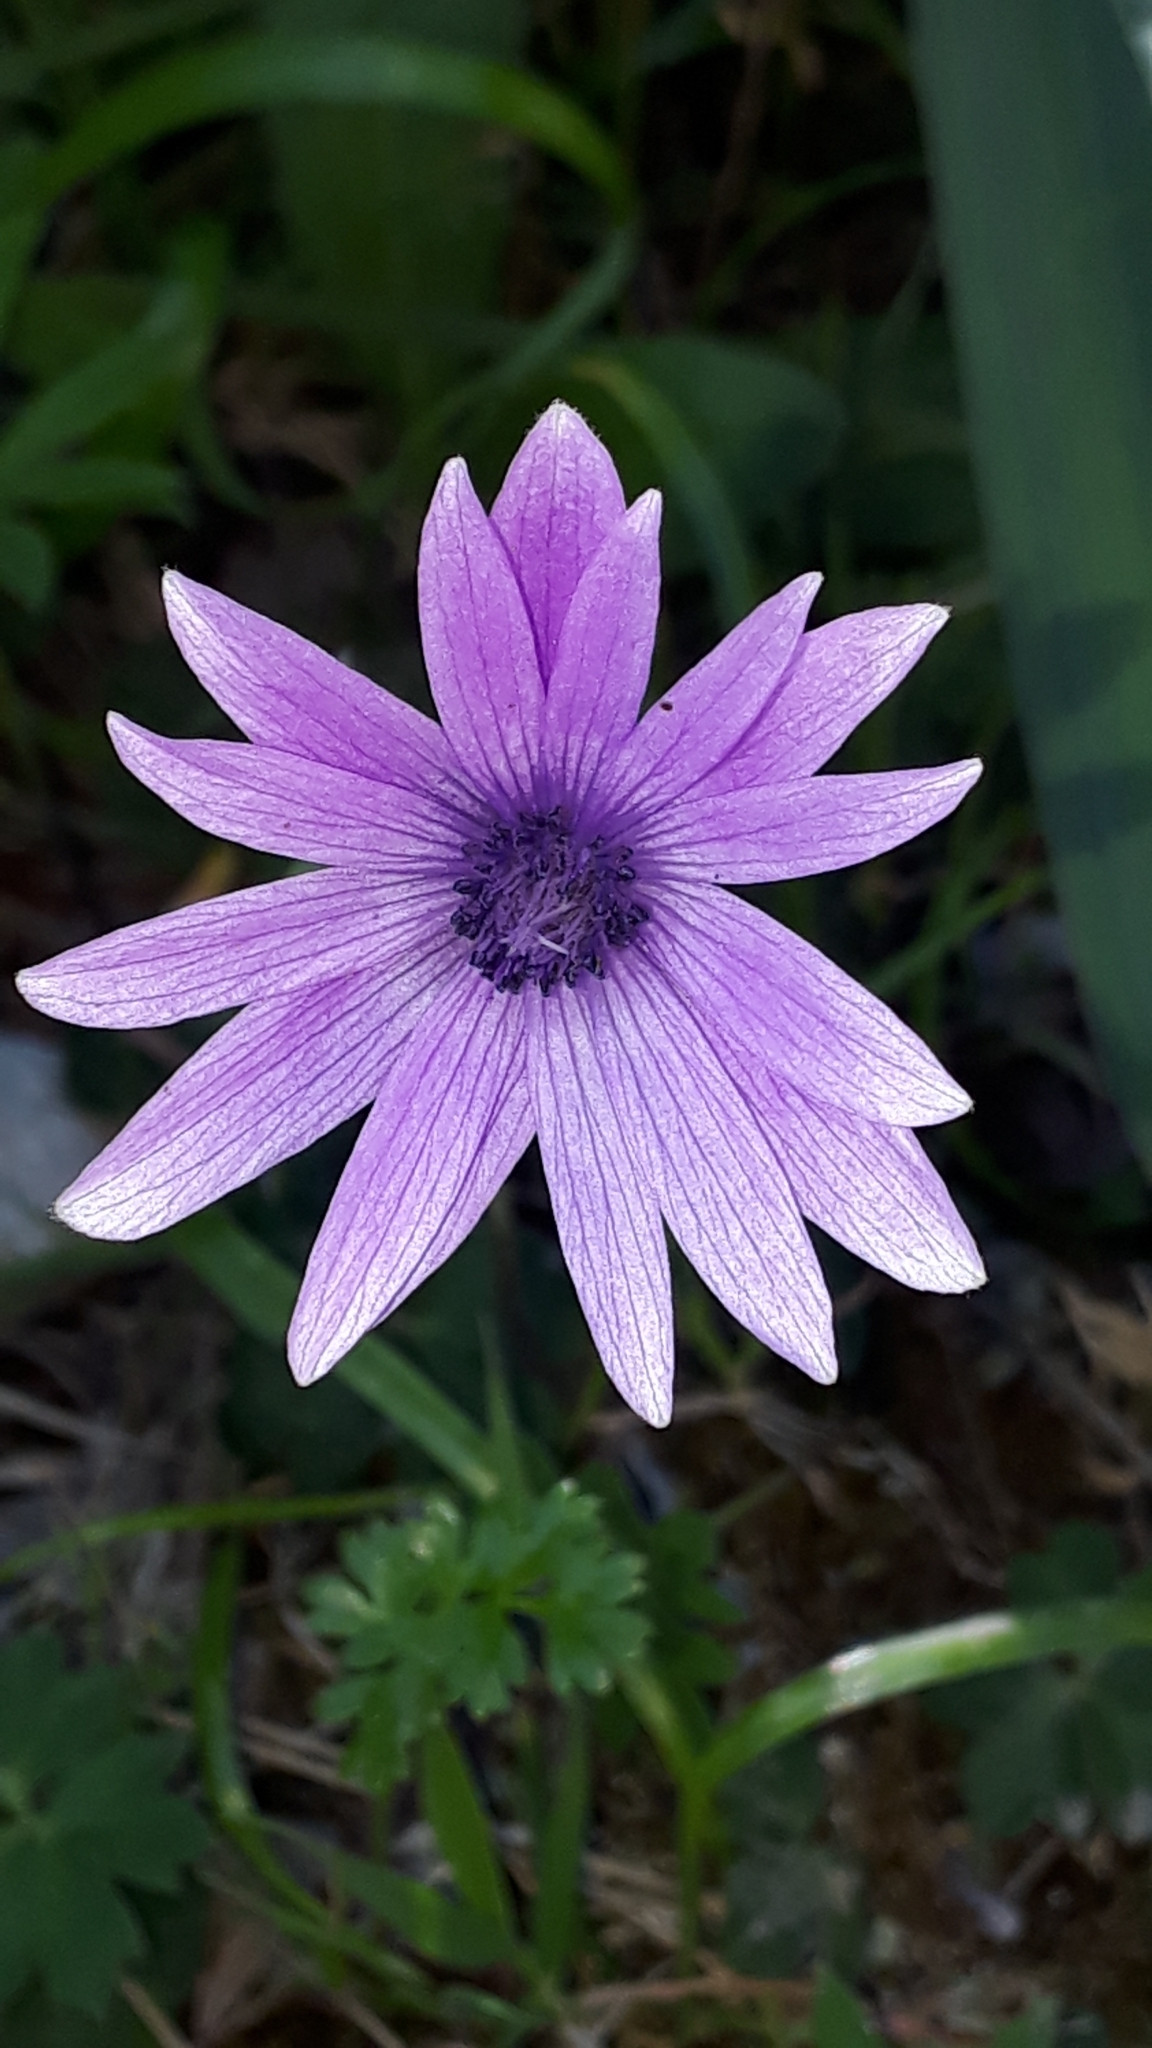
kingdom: Plantae
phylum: Tracheophyta
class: Magnoliopsida
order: Ranunculales
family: Ranunculaceae
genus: Anemone
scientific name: Anemone hortensis
